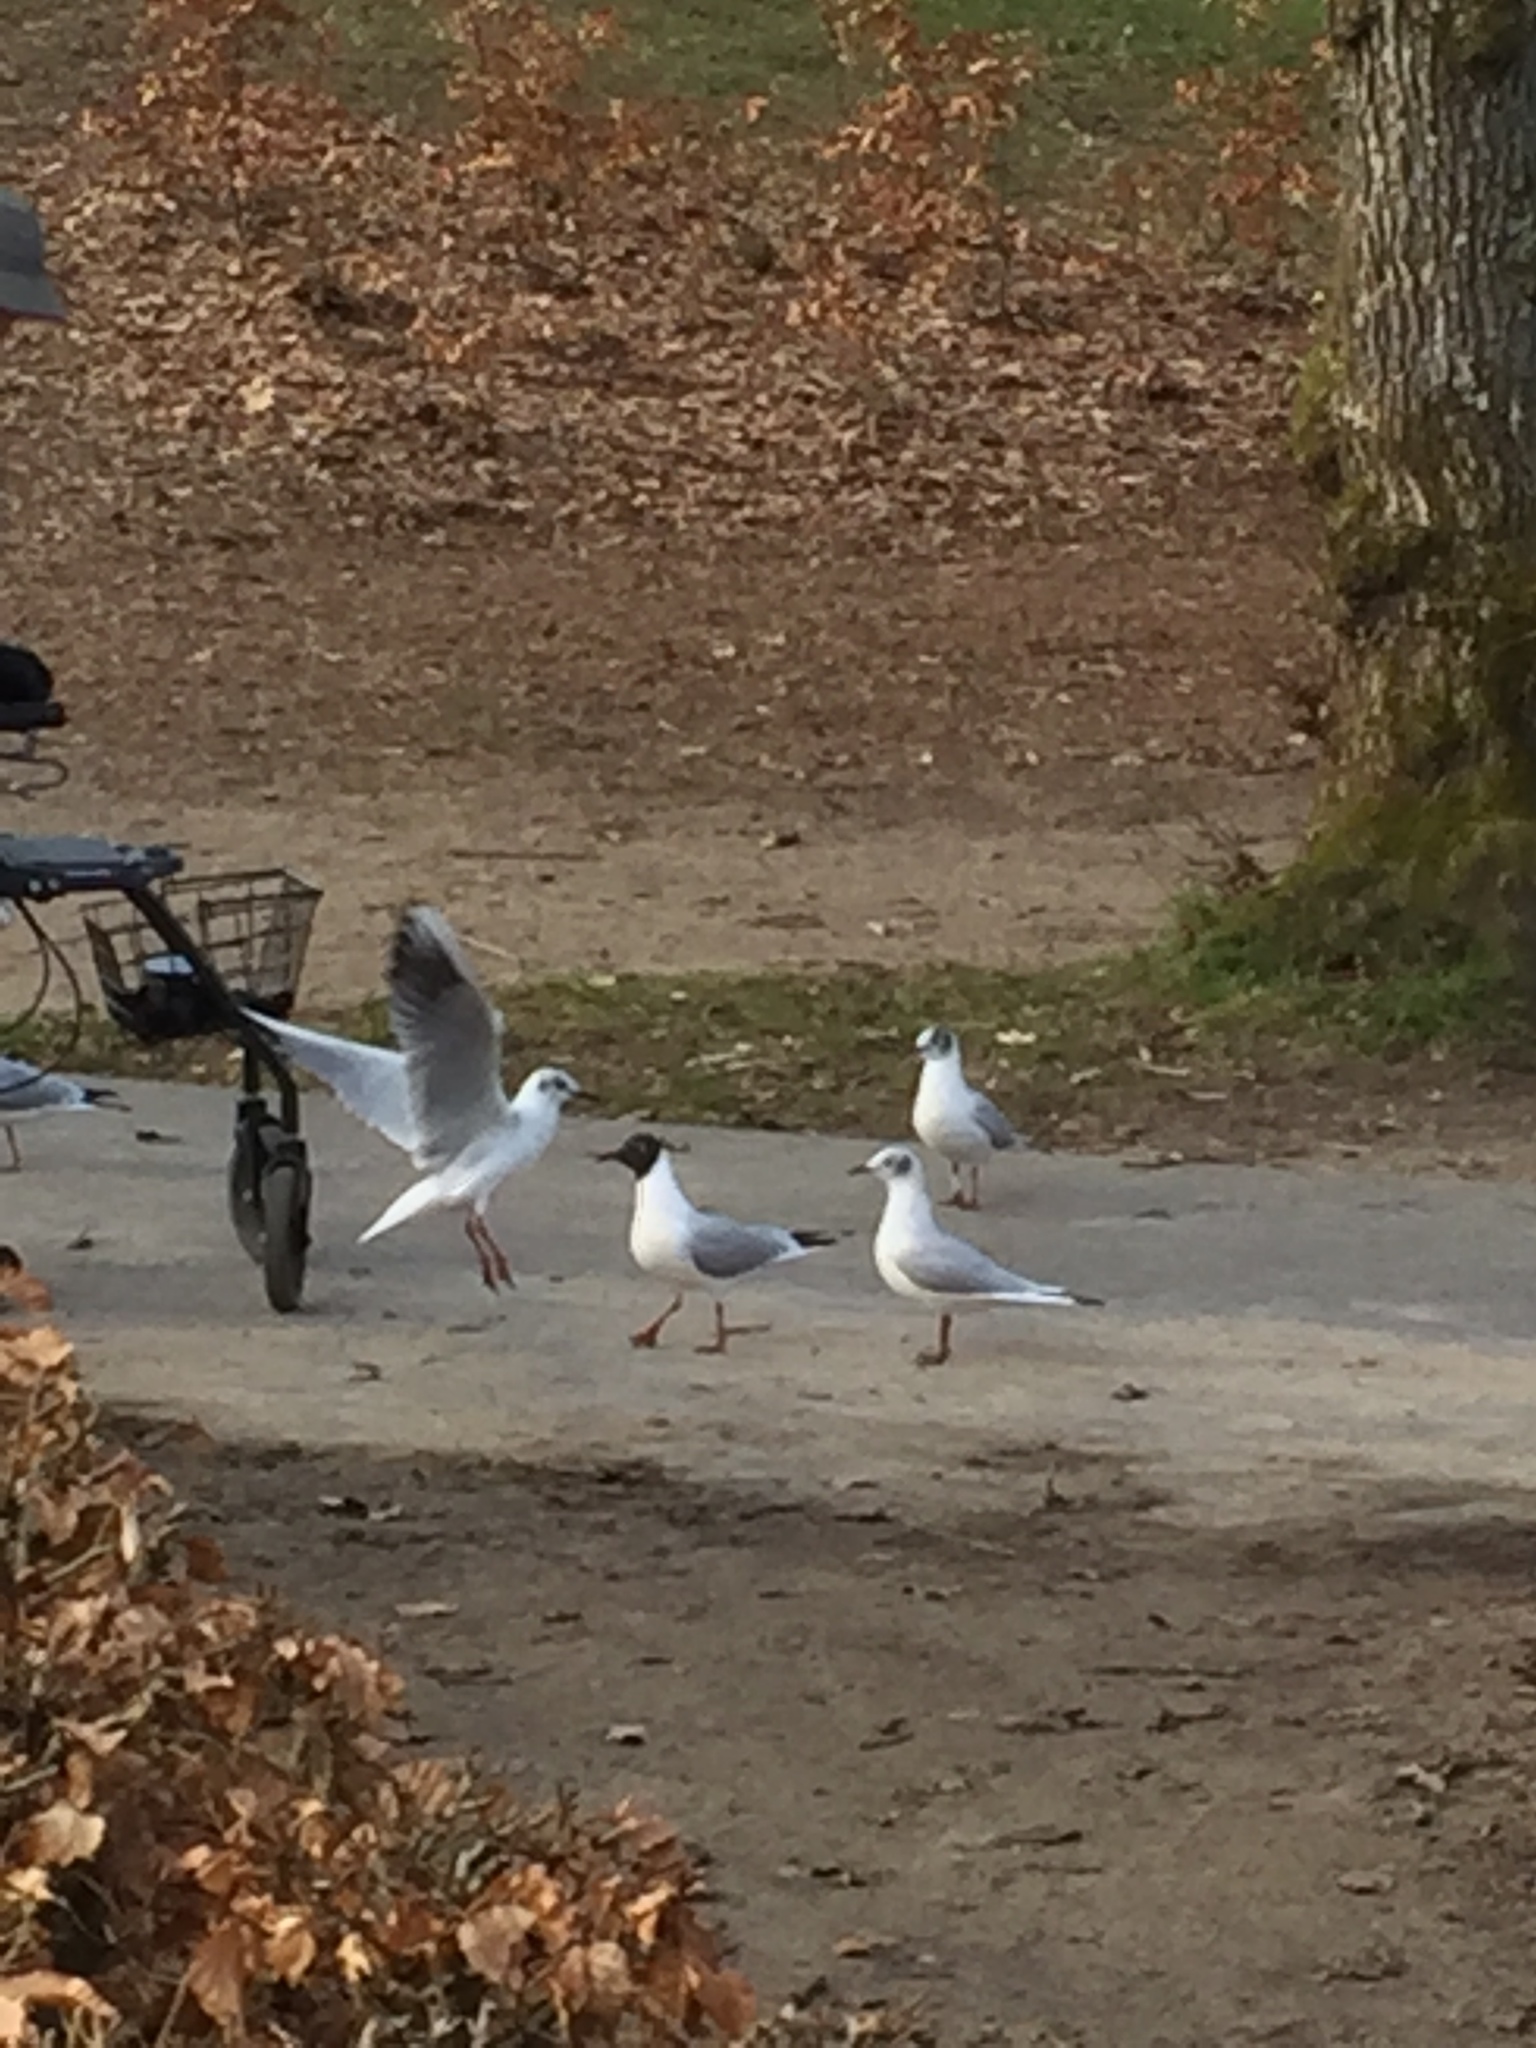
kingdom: Animalia
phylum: Chordata
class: Aves
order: Charadriiformes
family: Laridae
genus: Chroicocephalus
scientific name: Chroicocephalus ridibundus
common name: Black-headed gull
